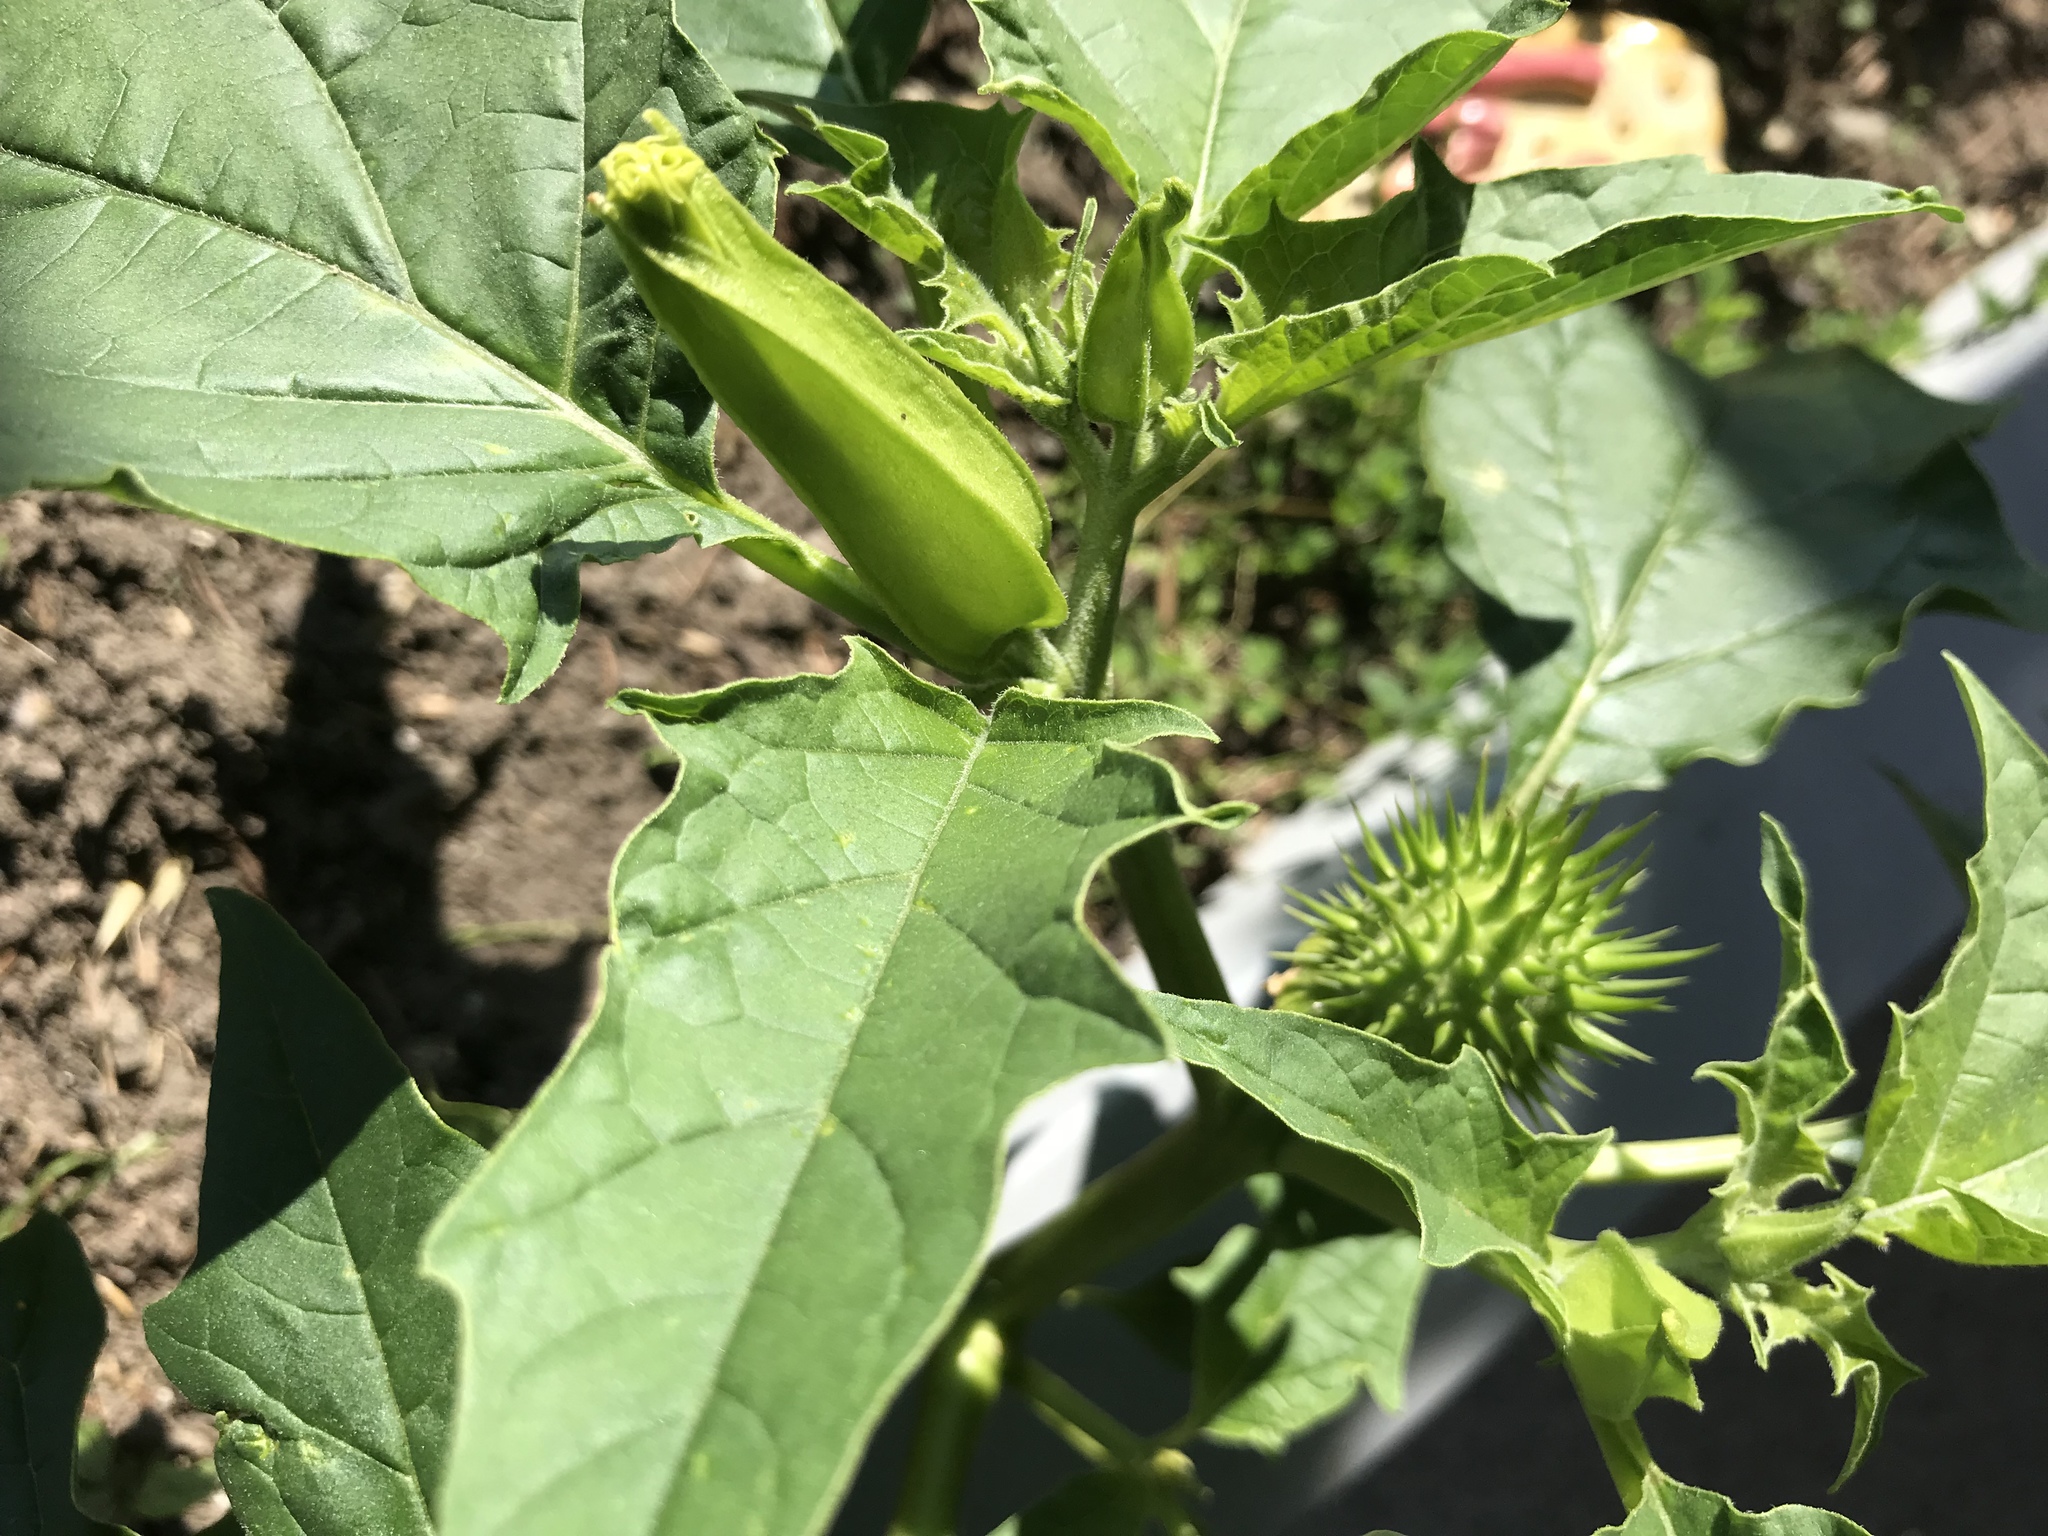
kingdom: Plantae
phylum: Tracheophyta
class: Magnoliopsida
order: Solanales
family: Solanaceae
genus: Datura
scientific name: Datura stramonium
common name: Thorn-apple
